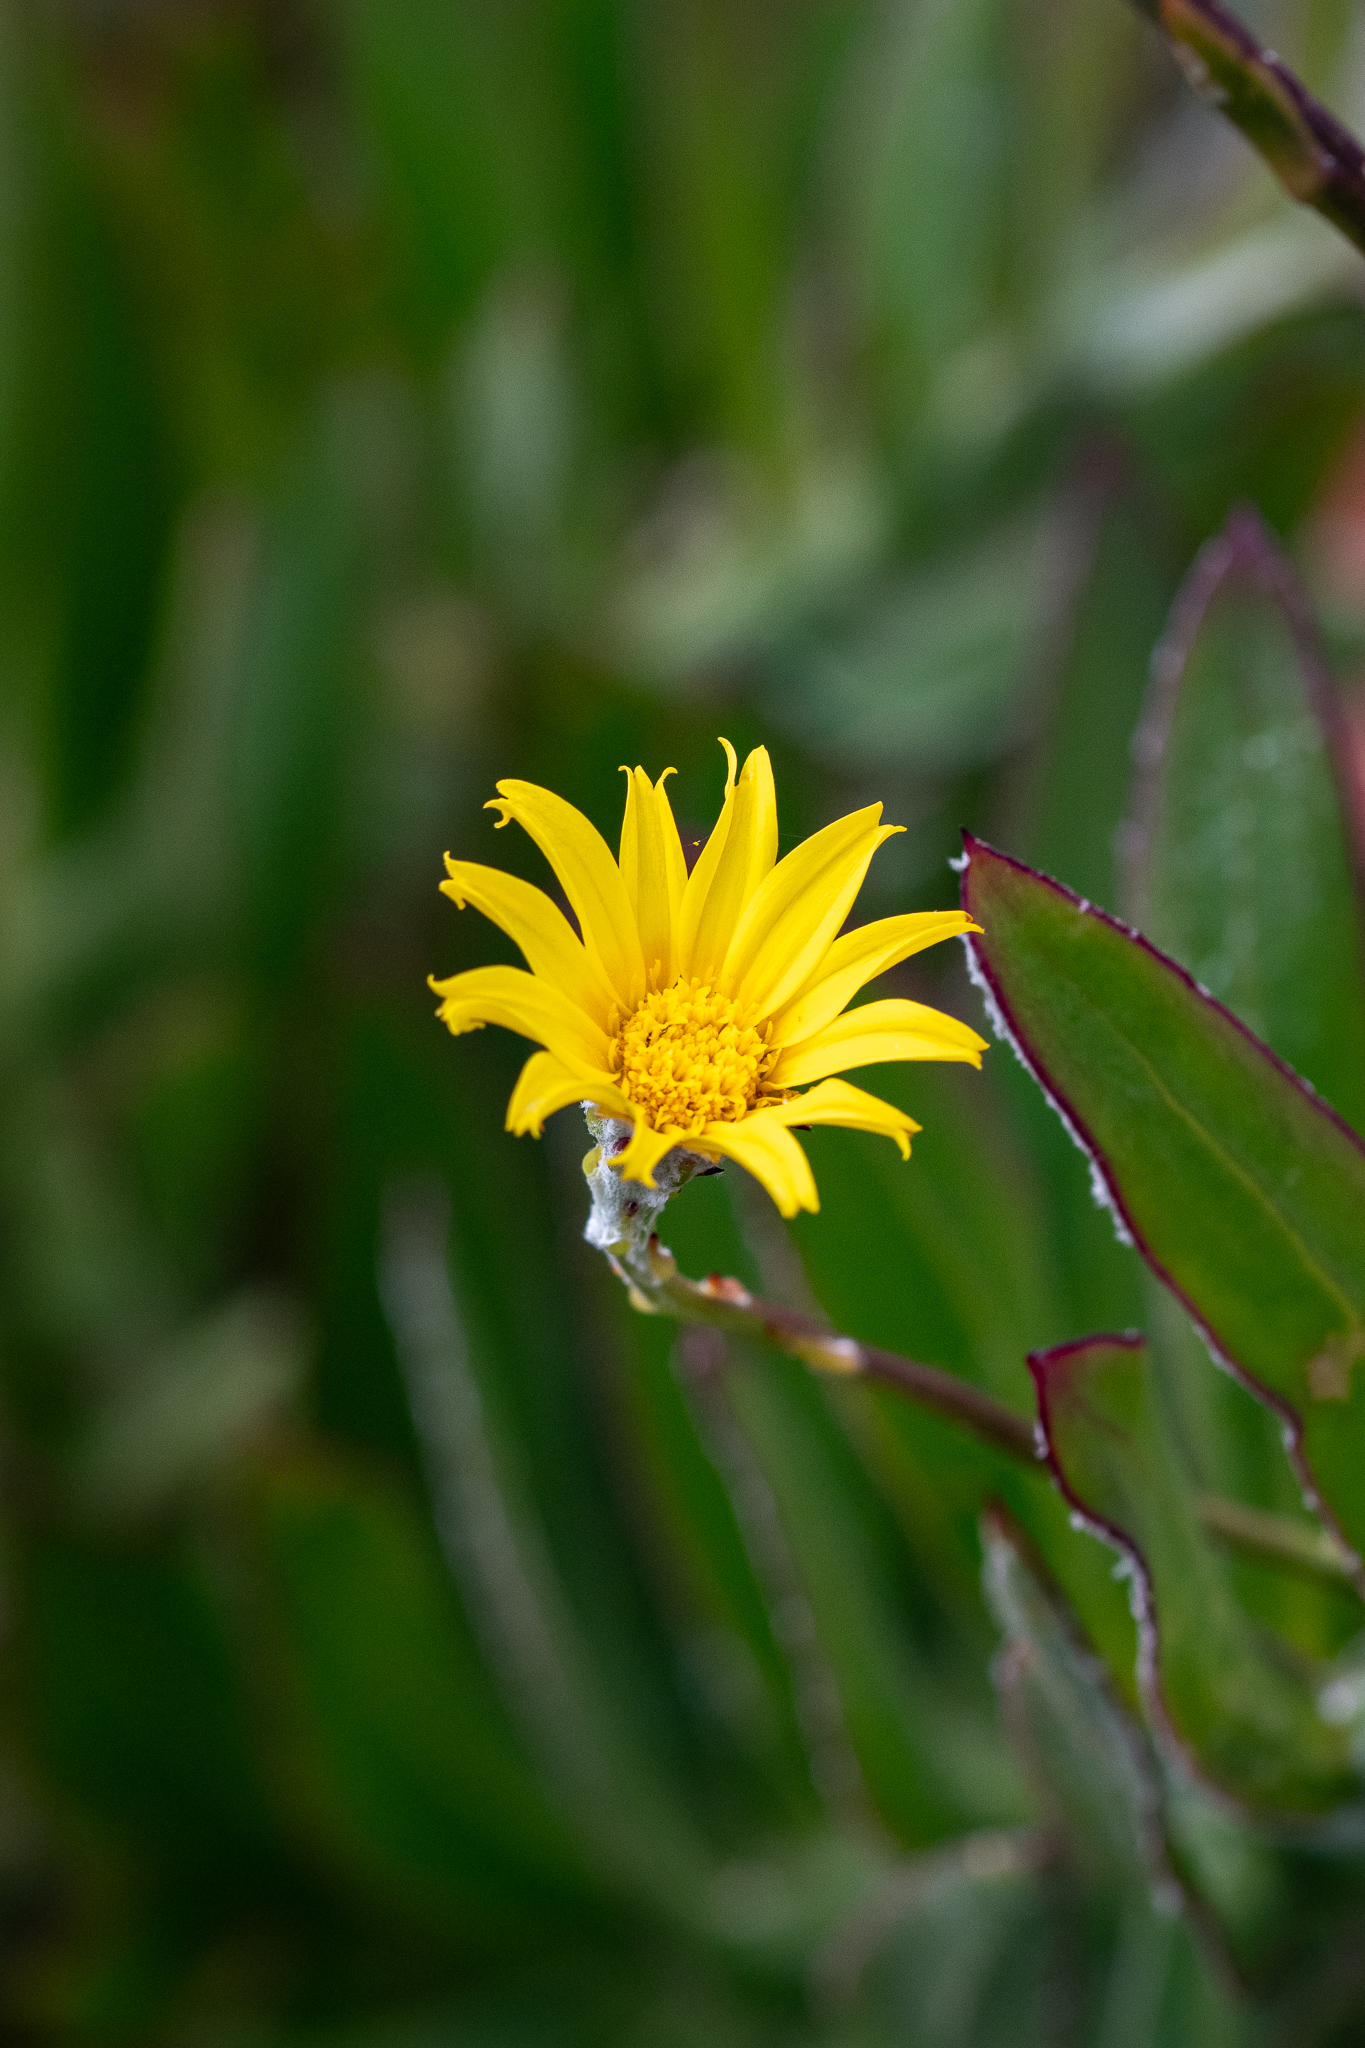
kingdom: Plantae
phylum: Tracheophyta
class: Magnoliopsida
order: Asterales
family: Asteraceae
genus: Osteospermum
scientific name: Osteospermum junceum
